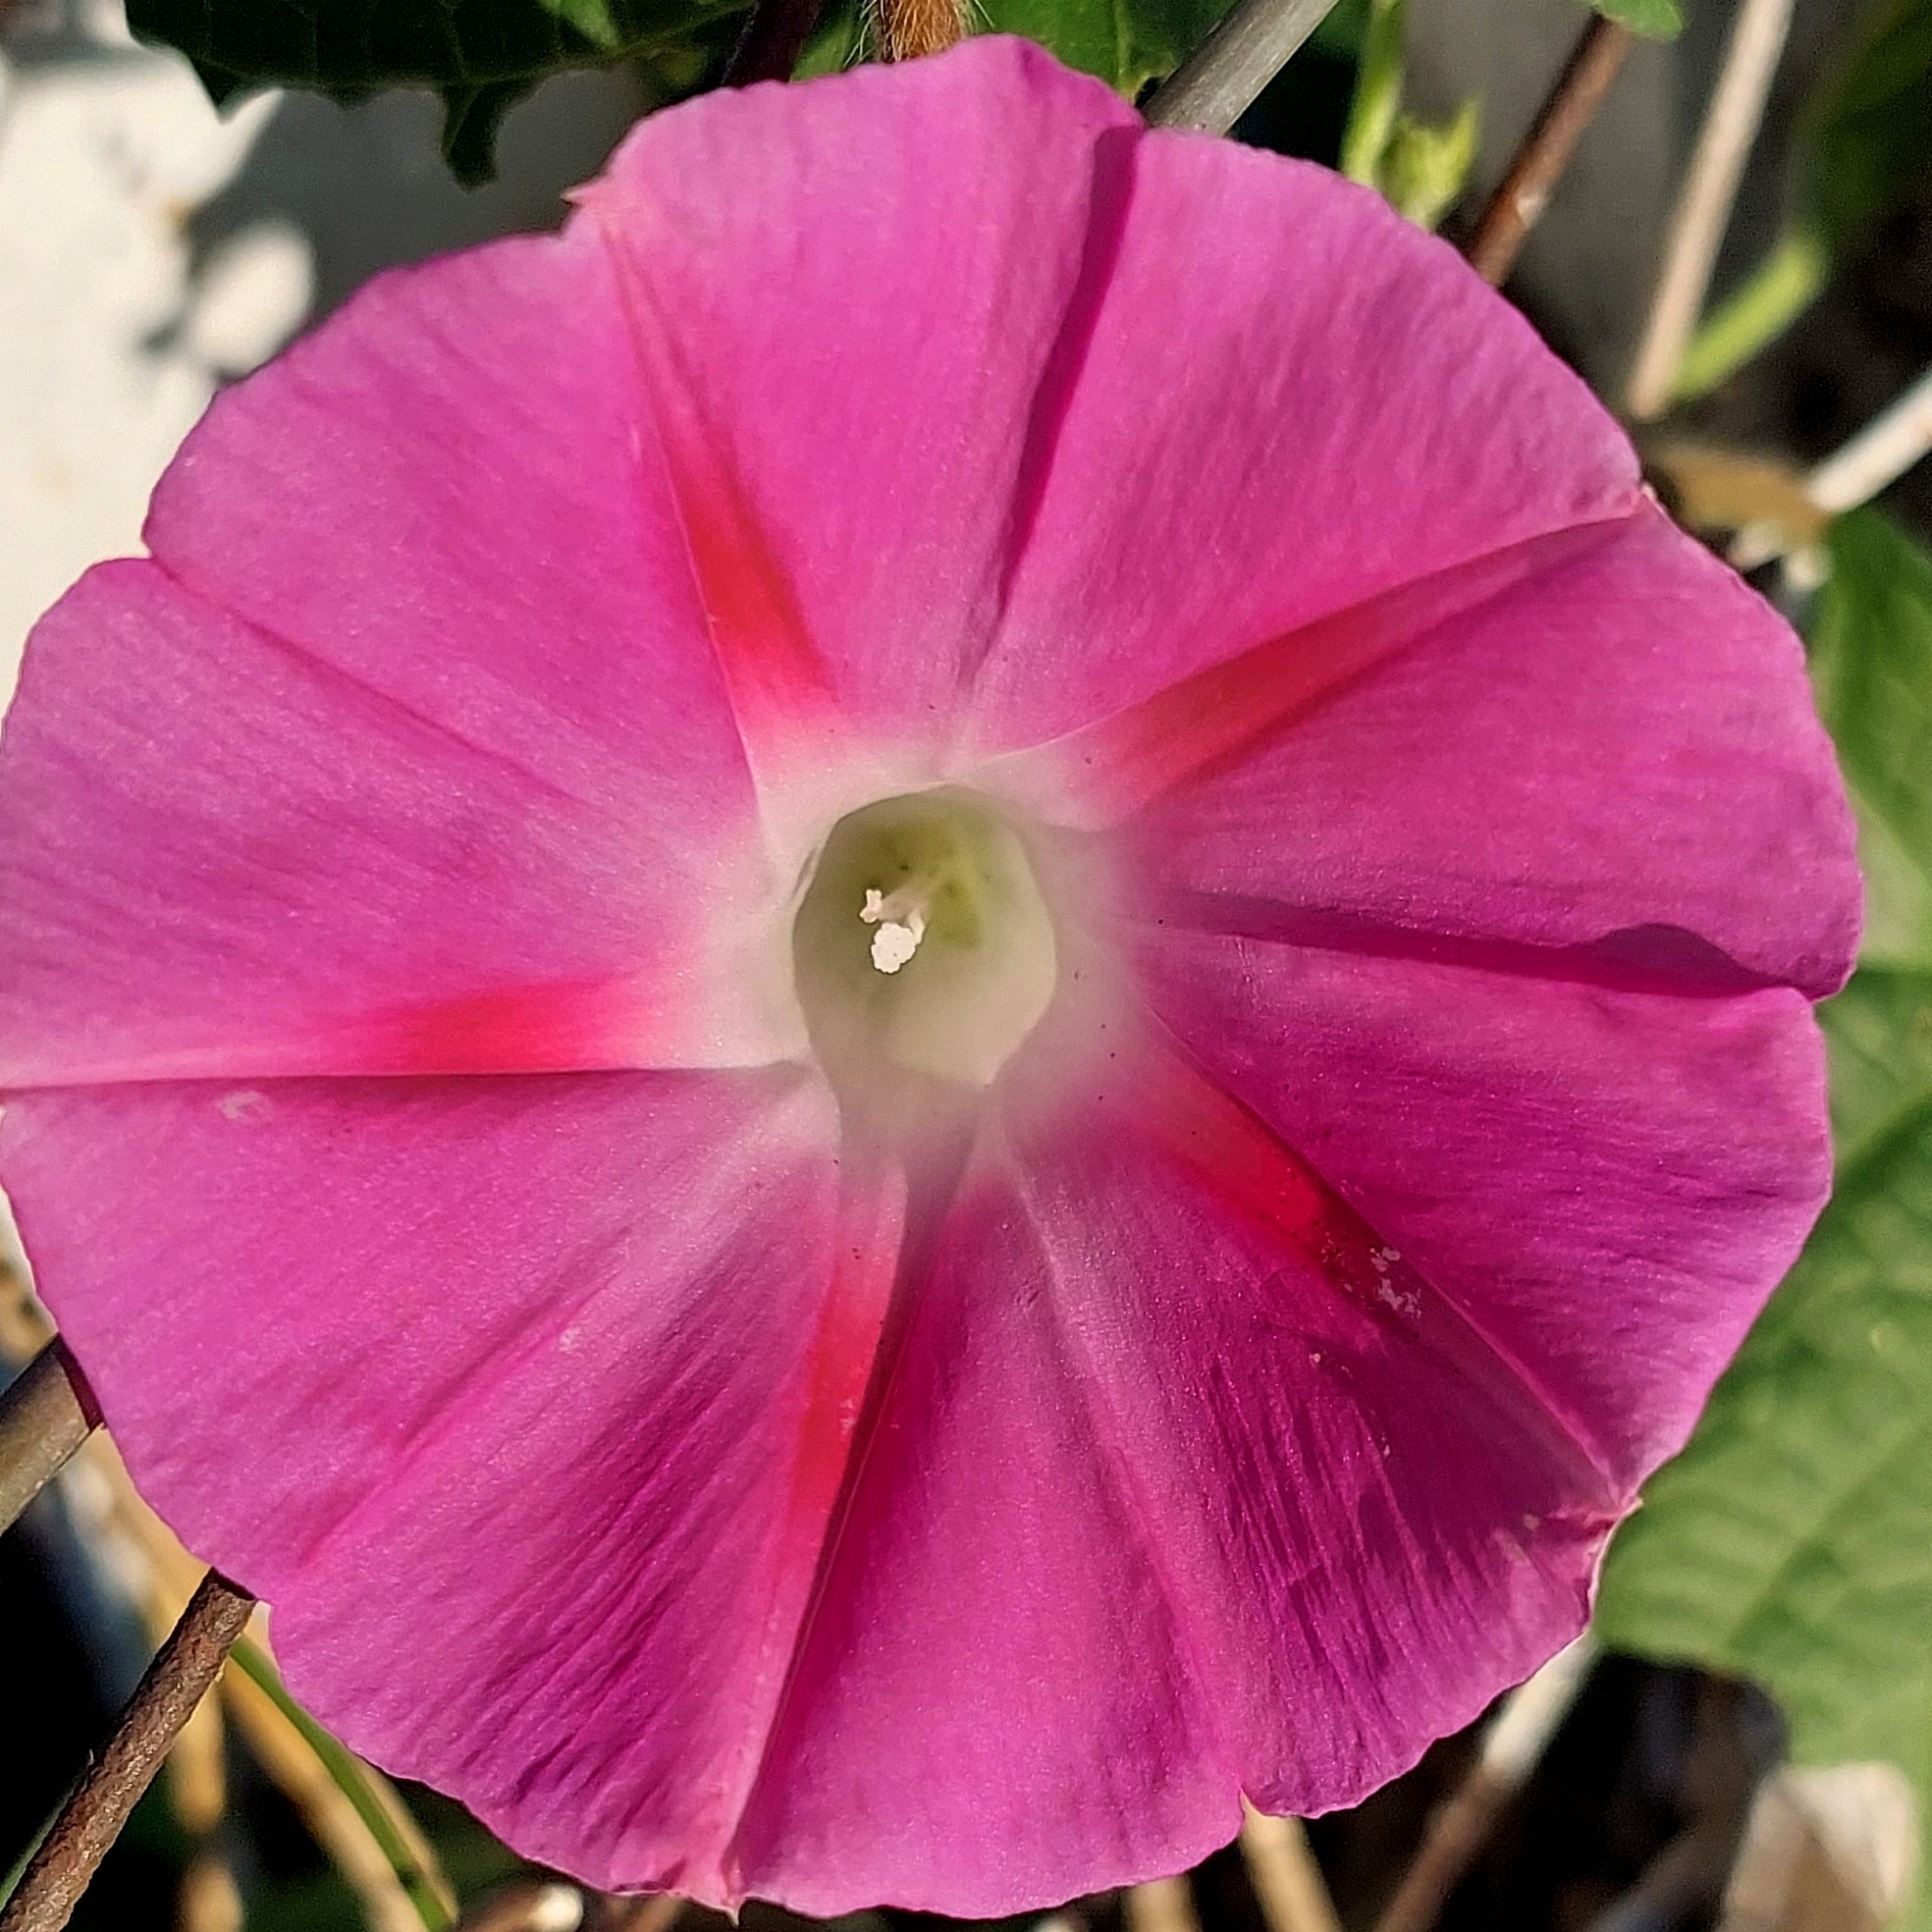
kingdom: Plantae
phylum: Tracheophyta
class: Magnoliopsida
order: Solanales
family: Convolvulaceae
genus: Ipomoea
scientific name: Ipomoea purpurea
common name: Common morning-glory
